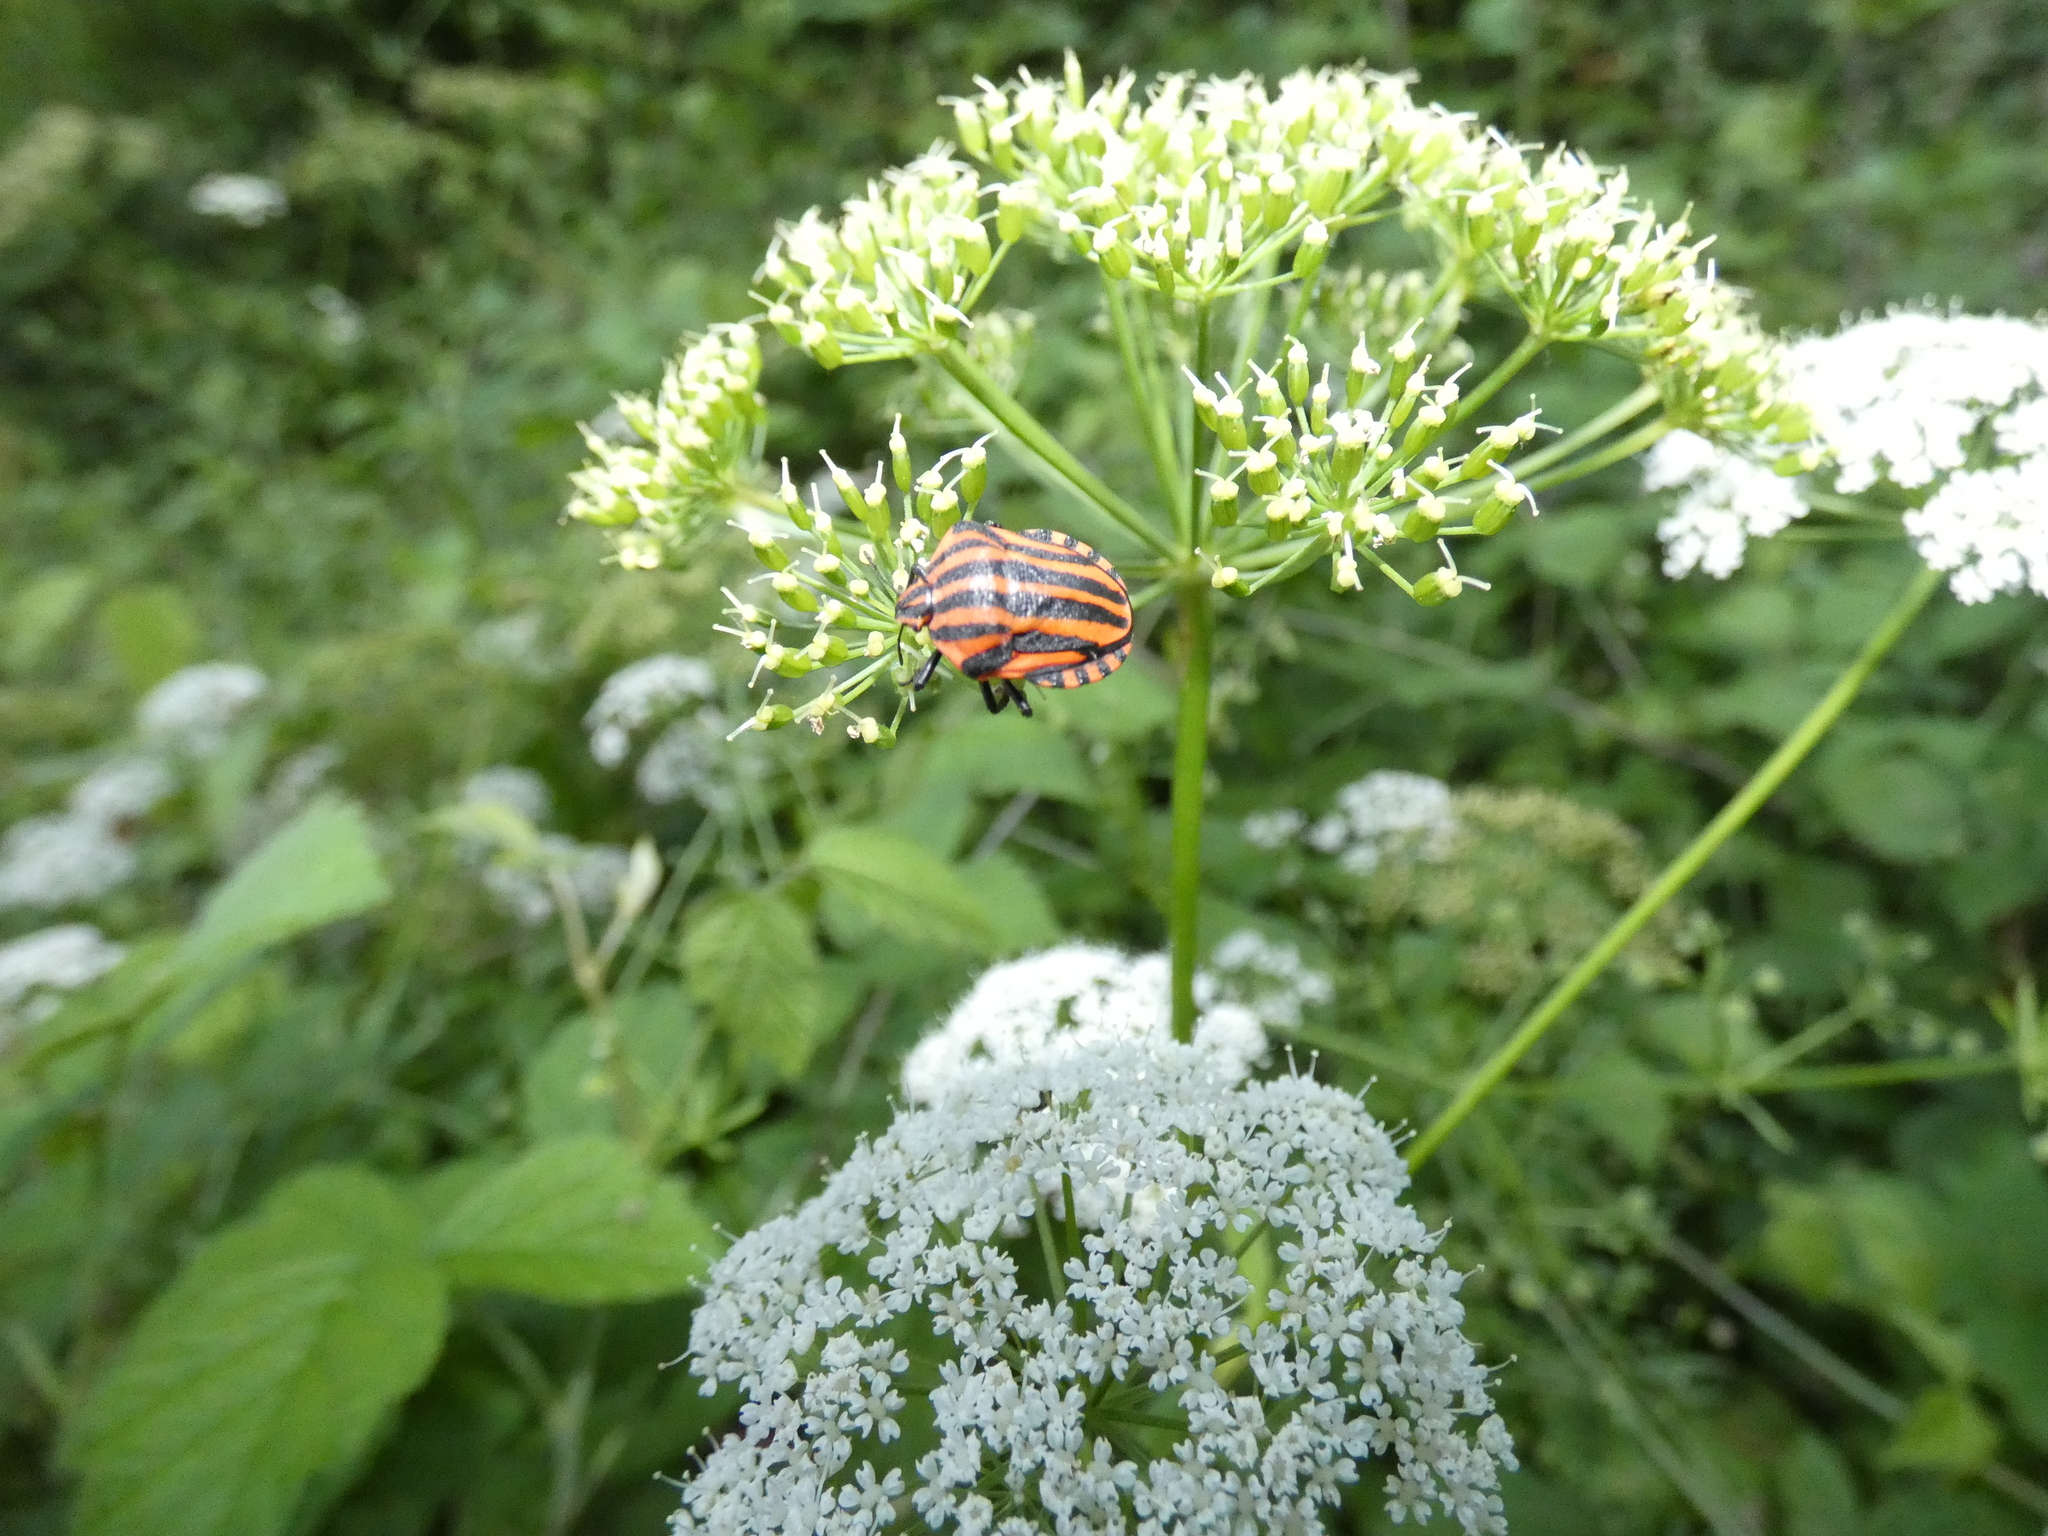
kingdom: Animalia
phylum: Arthropoda
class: Insecta
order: Hemiptera
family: Pentatomidae
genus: Graphosoma
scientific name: Graphosoma italicum
